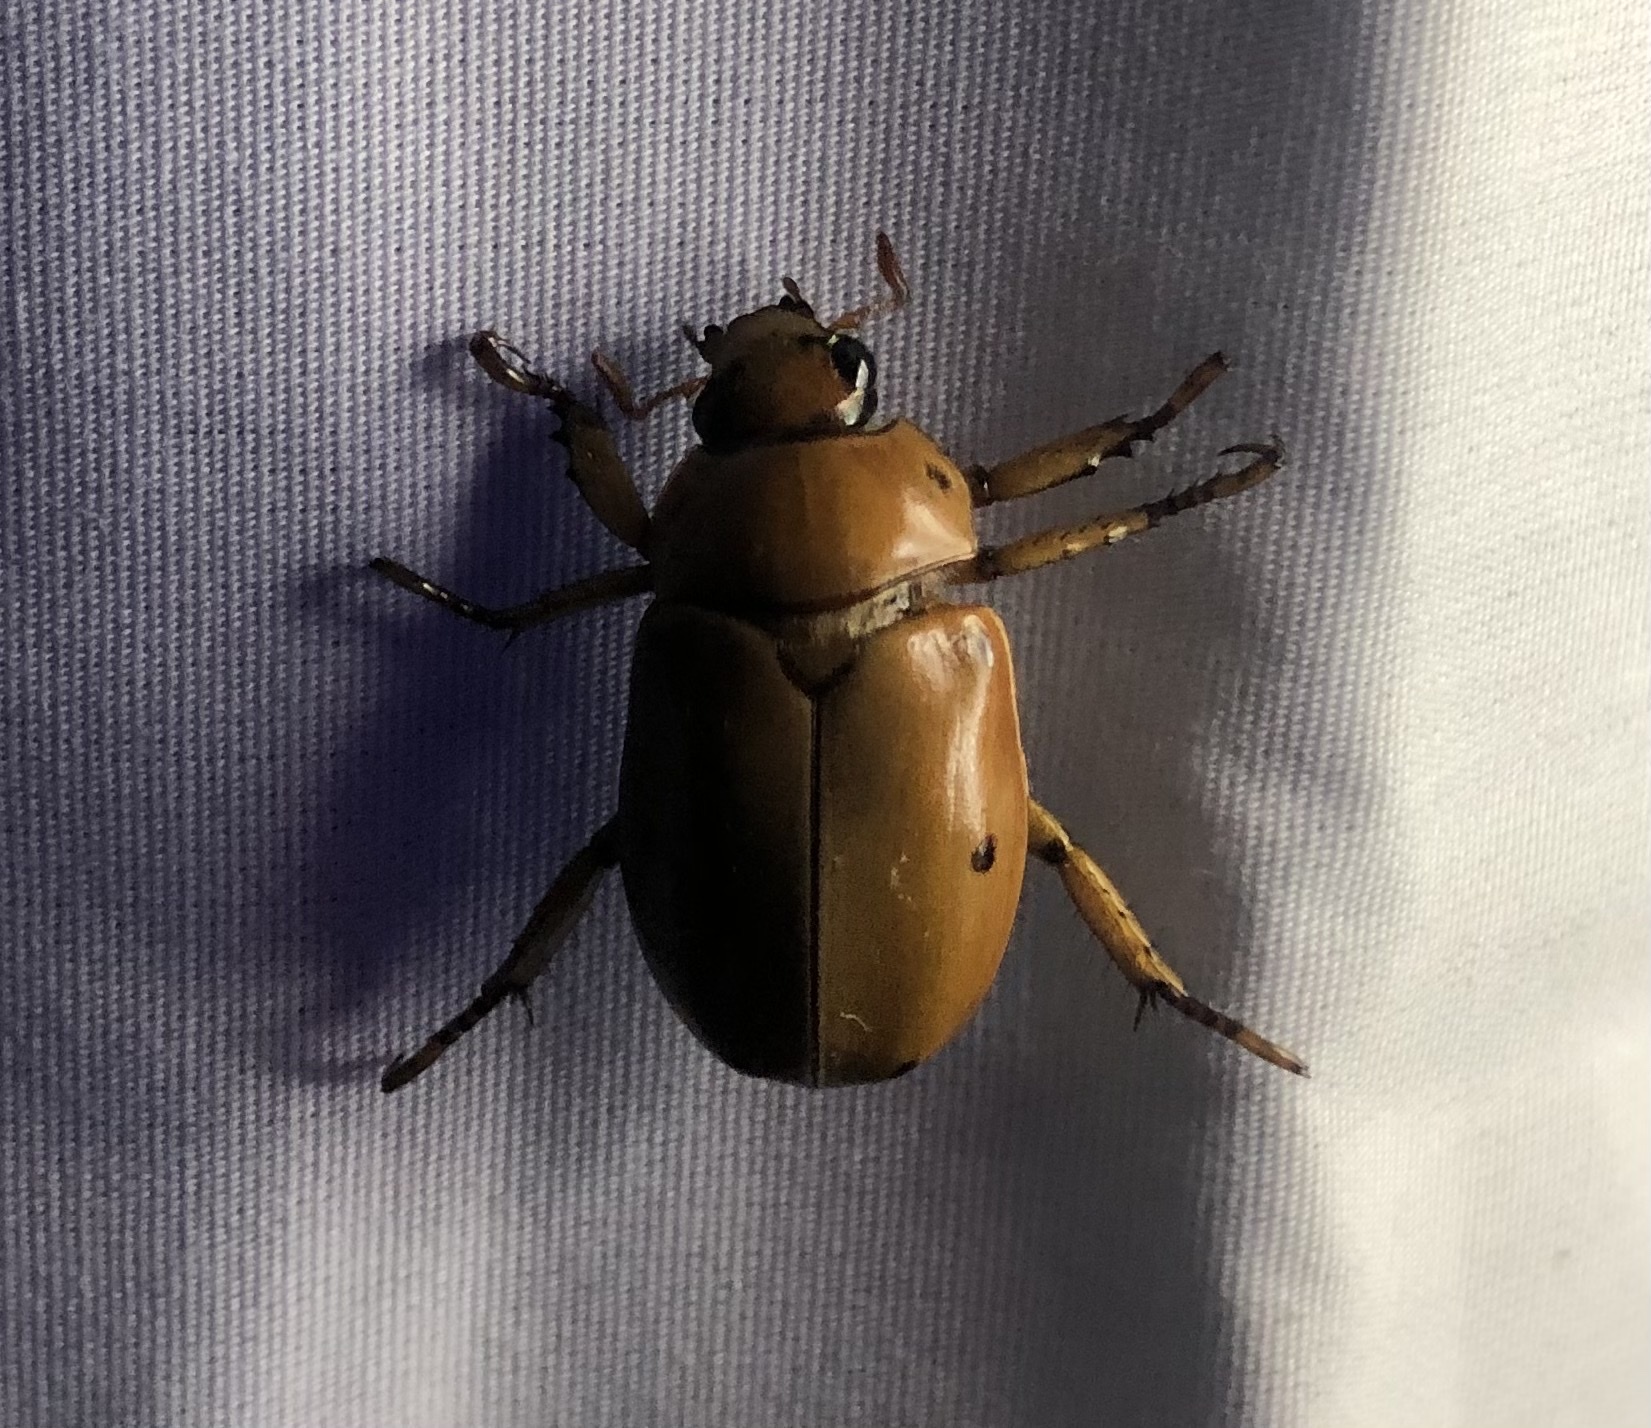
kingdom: Animalia
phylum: Arthropoda
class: Insecta
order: Coleoptera
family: Scarabaeidae
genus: Pelidnota
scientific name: Pelidnota punctata
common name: Grapevine beetle
